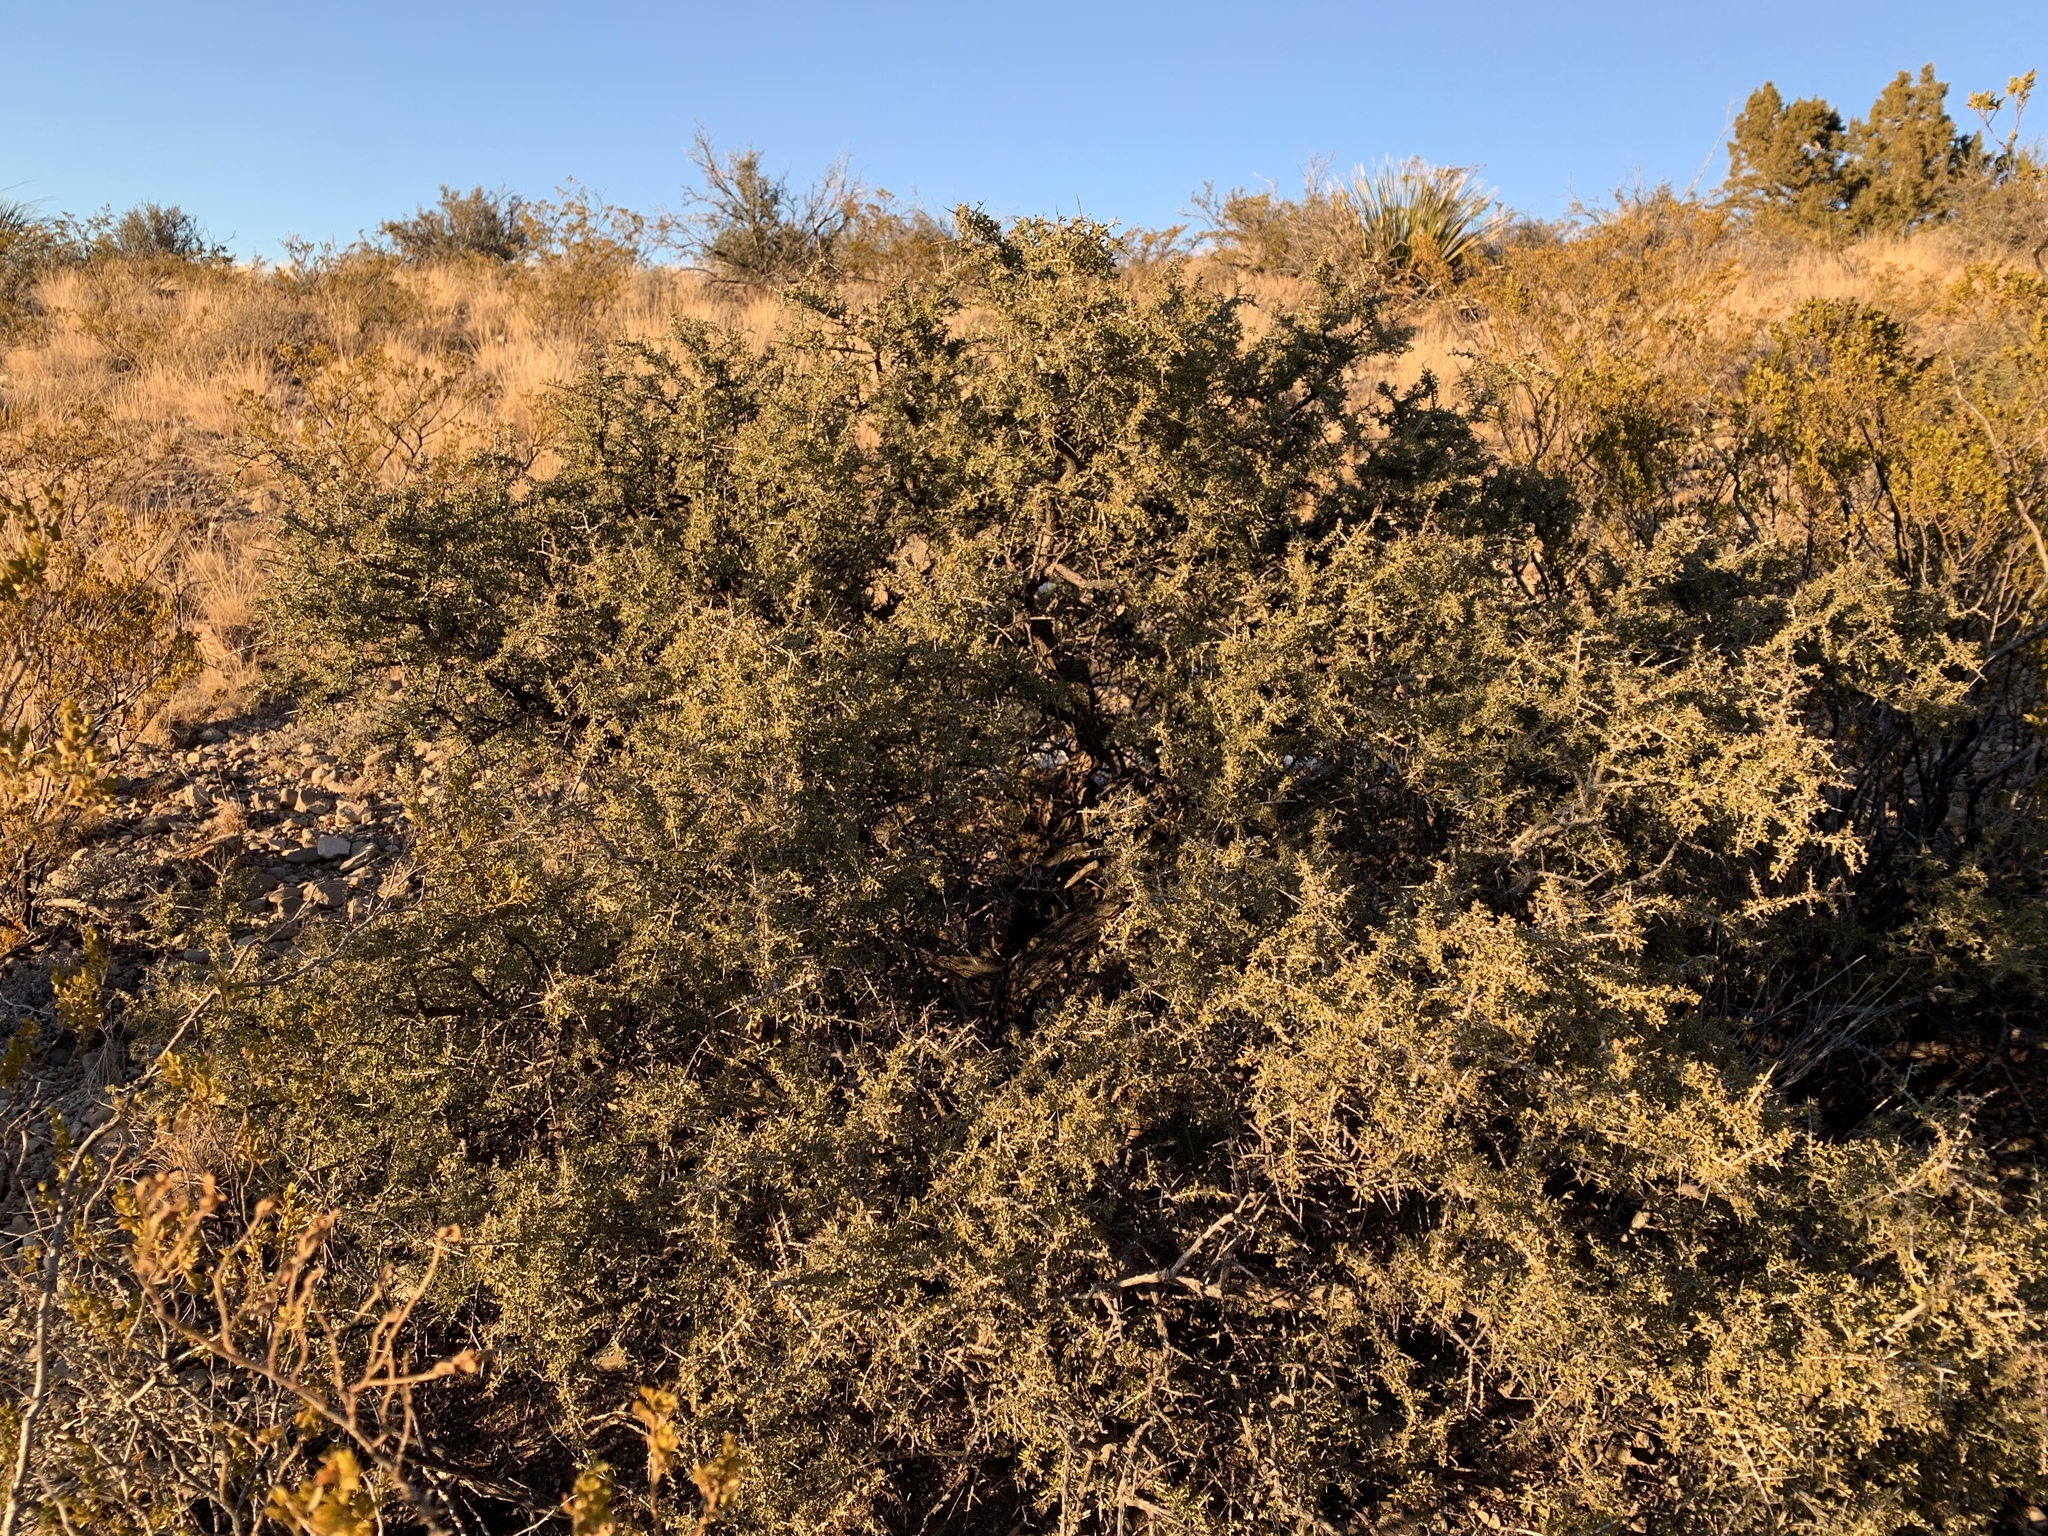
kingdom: Plantae
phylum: Tracheophyta
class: Magnoliopsida
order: Rosales
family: Rhamnaceae
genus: Condalia
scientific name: Condalia warnockii
